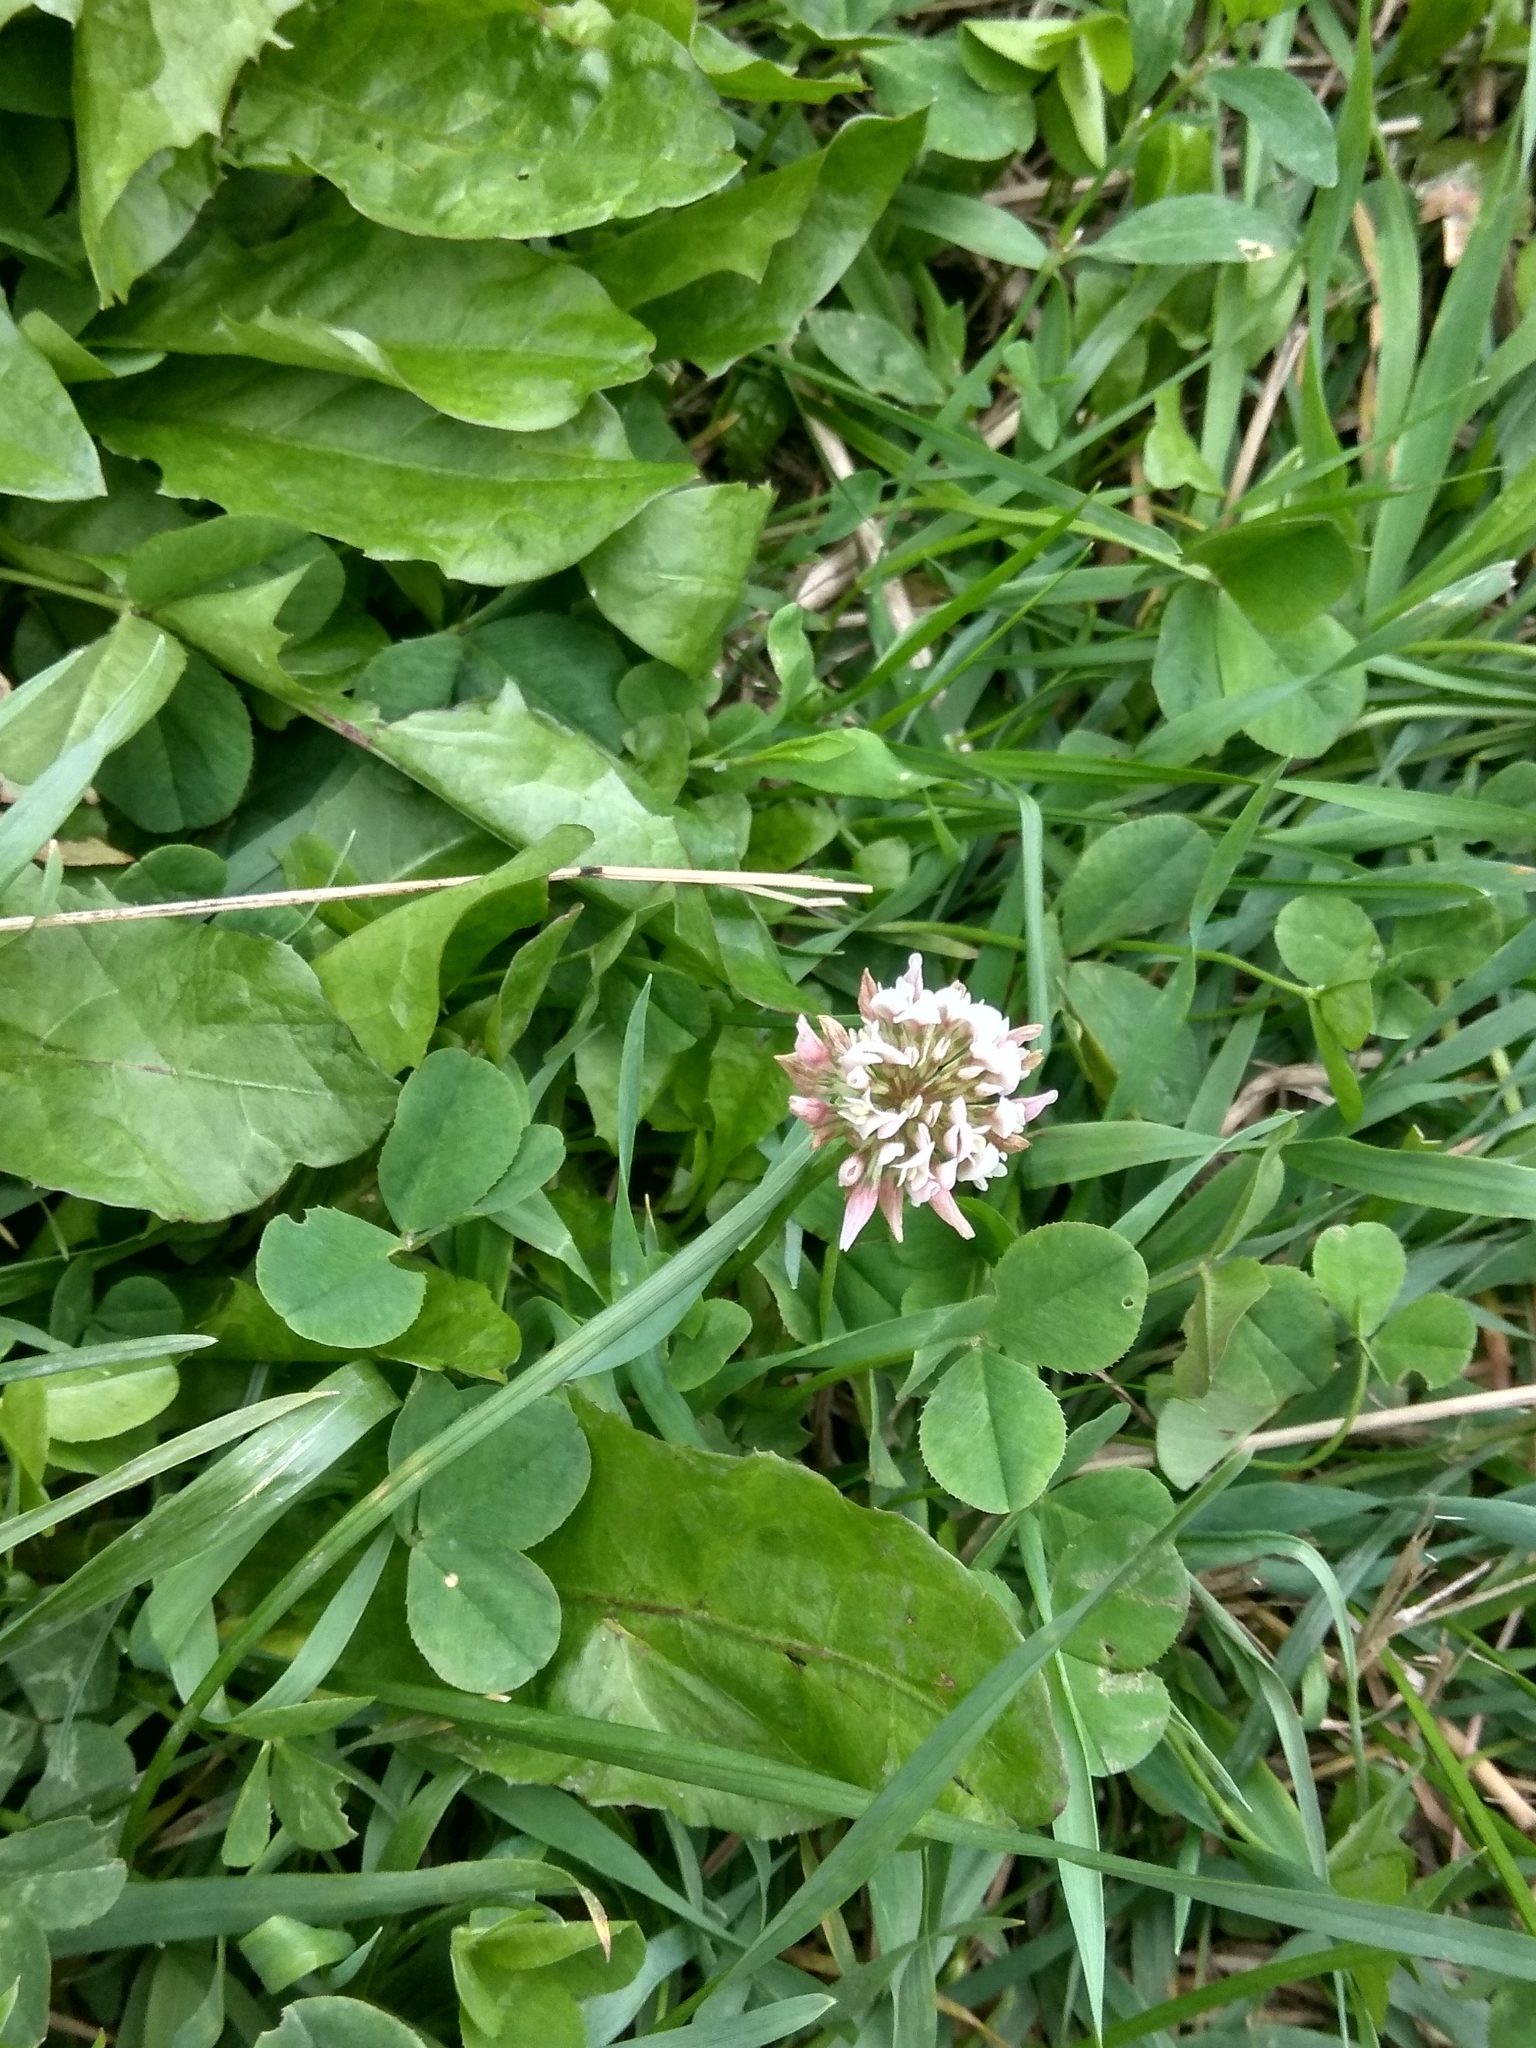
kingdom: Plantae
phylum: Tracheophyta
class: Magnoliopsida
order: Fabales
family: Fabaceae
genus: Trifolium
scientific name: Trifolium repens
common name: White clover
